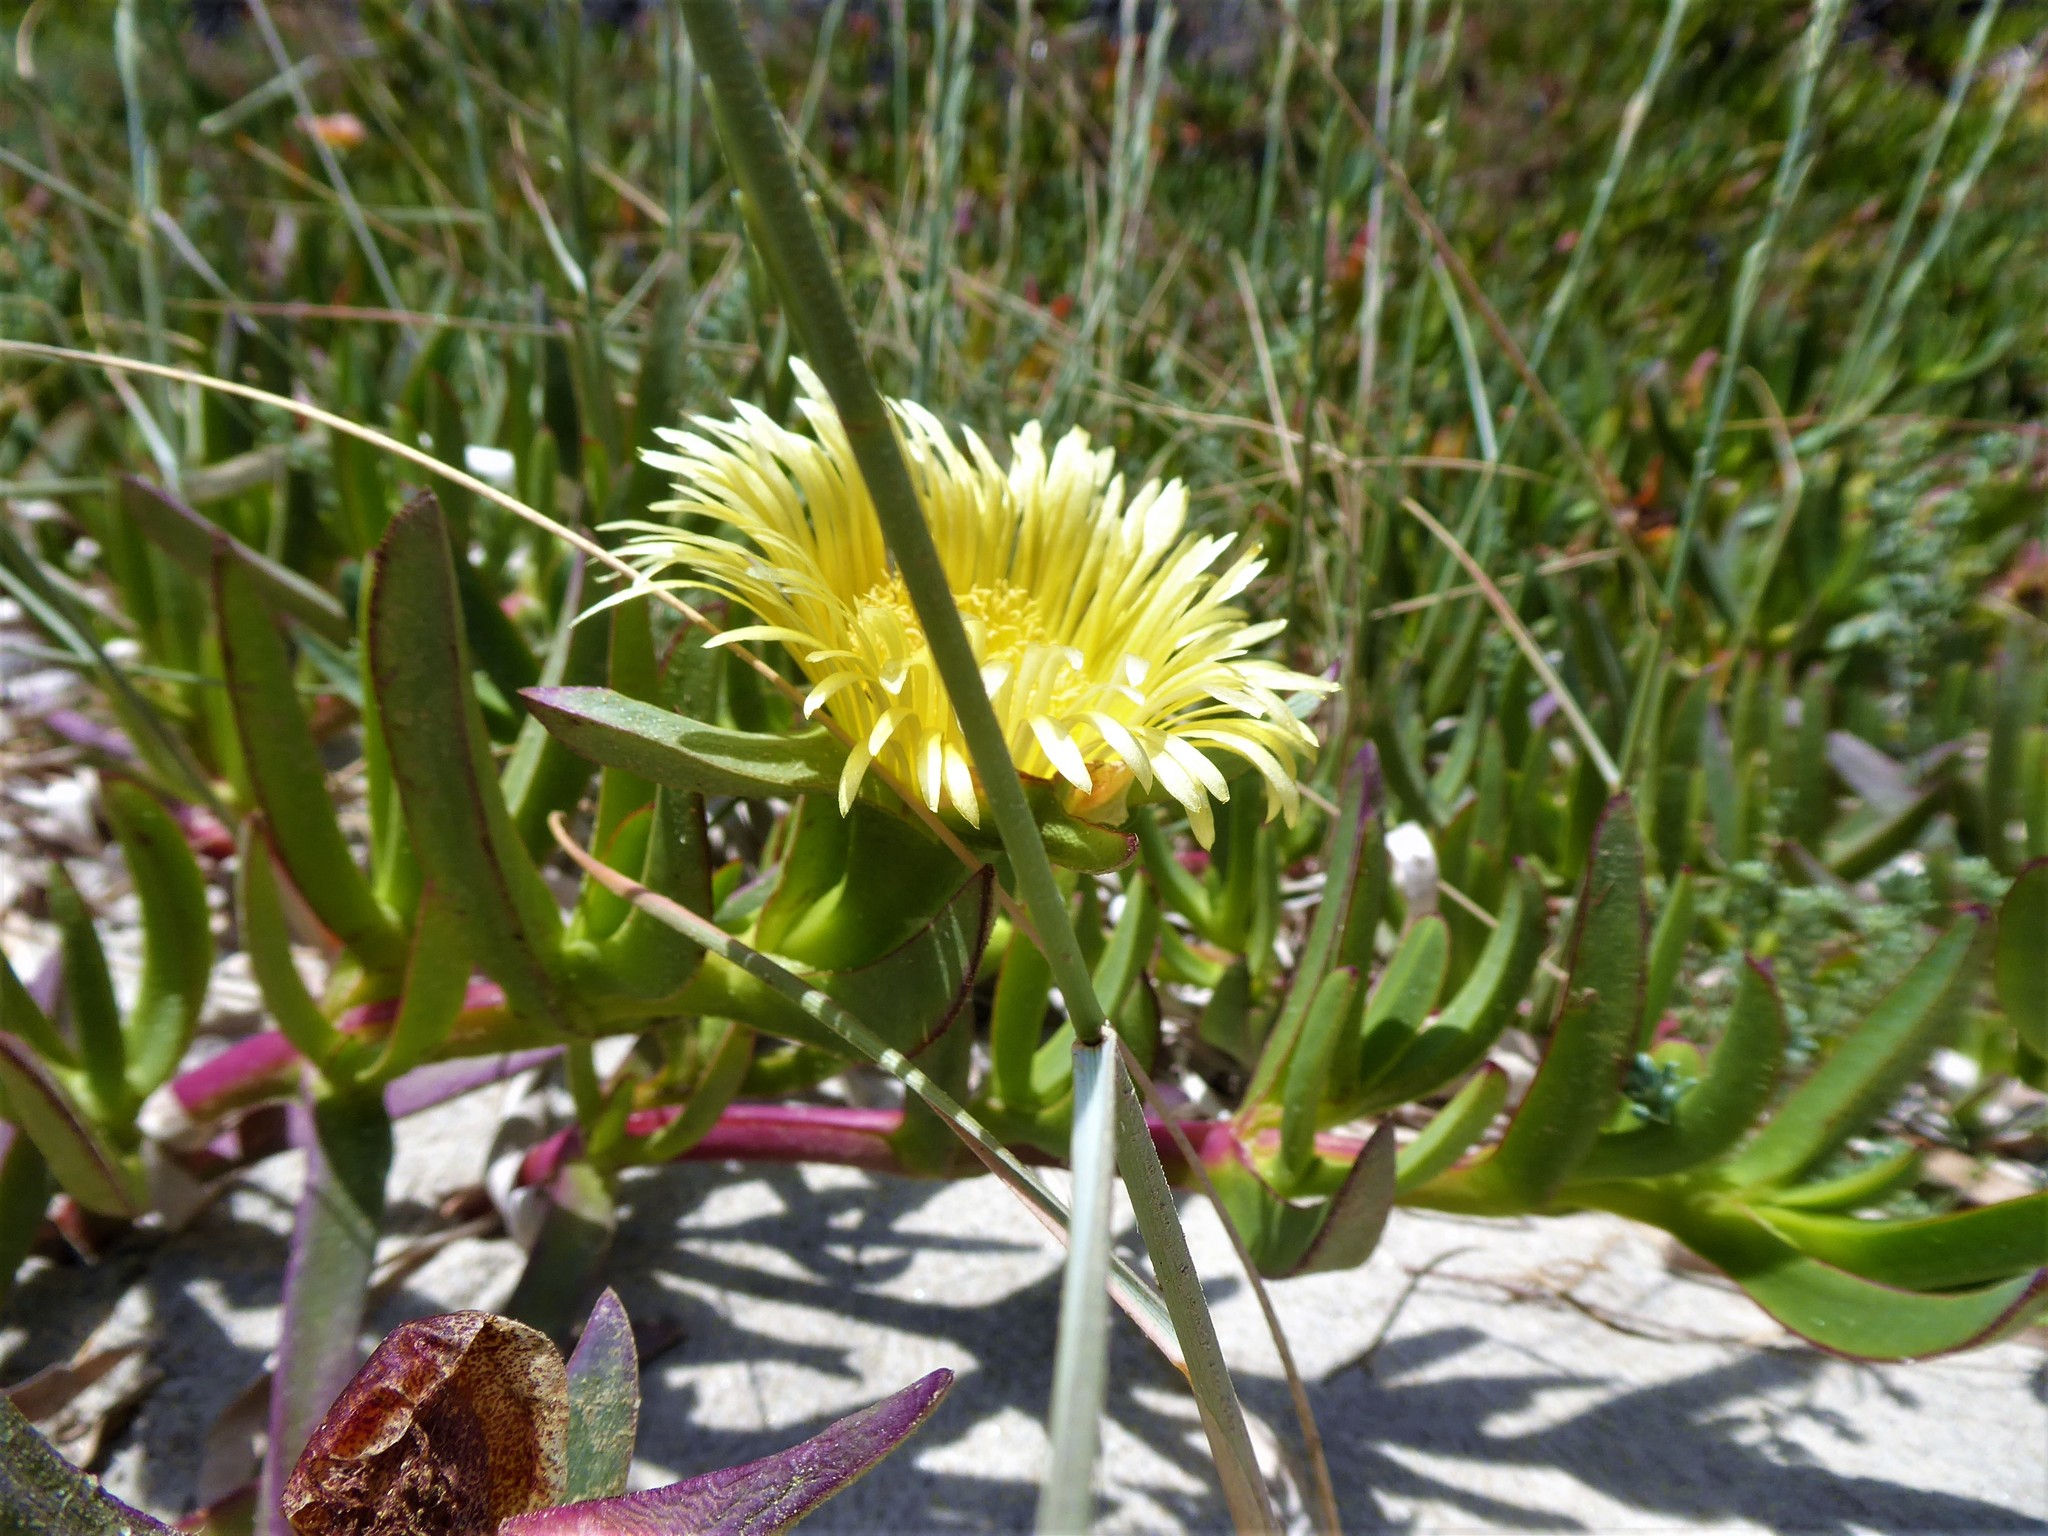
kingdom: Plantae
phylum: Tracheophyta
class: Magnoliopsida
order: Caryophyllales
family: Aizoaceae
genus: Carpobrotus
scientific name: Carpobrotus edulis
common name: Hottentot-fig
